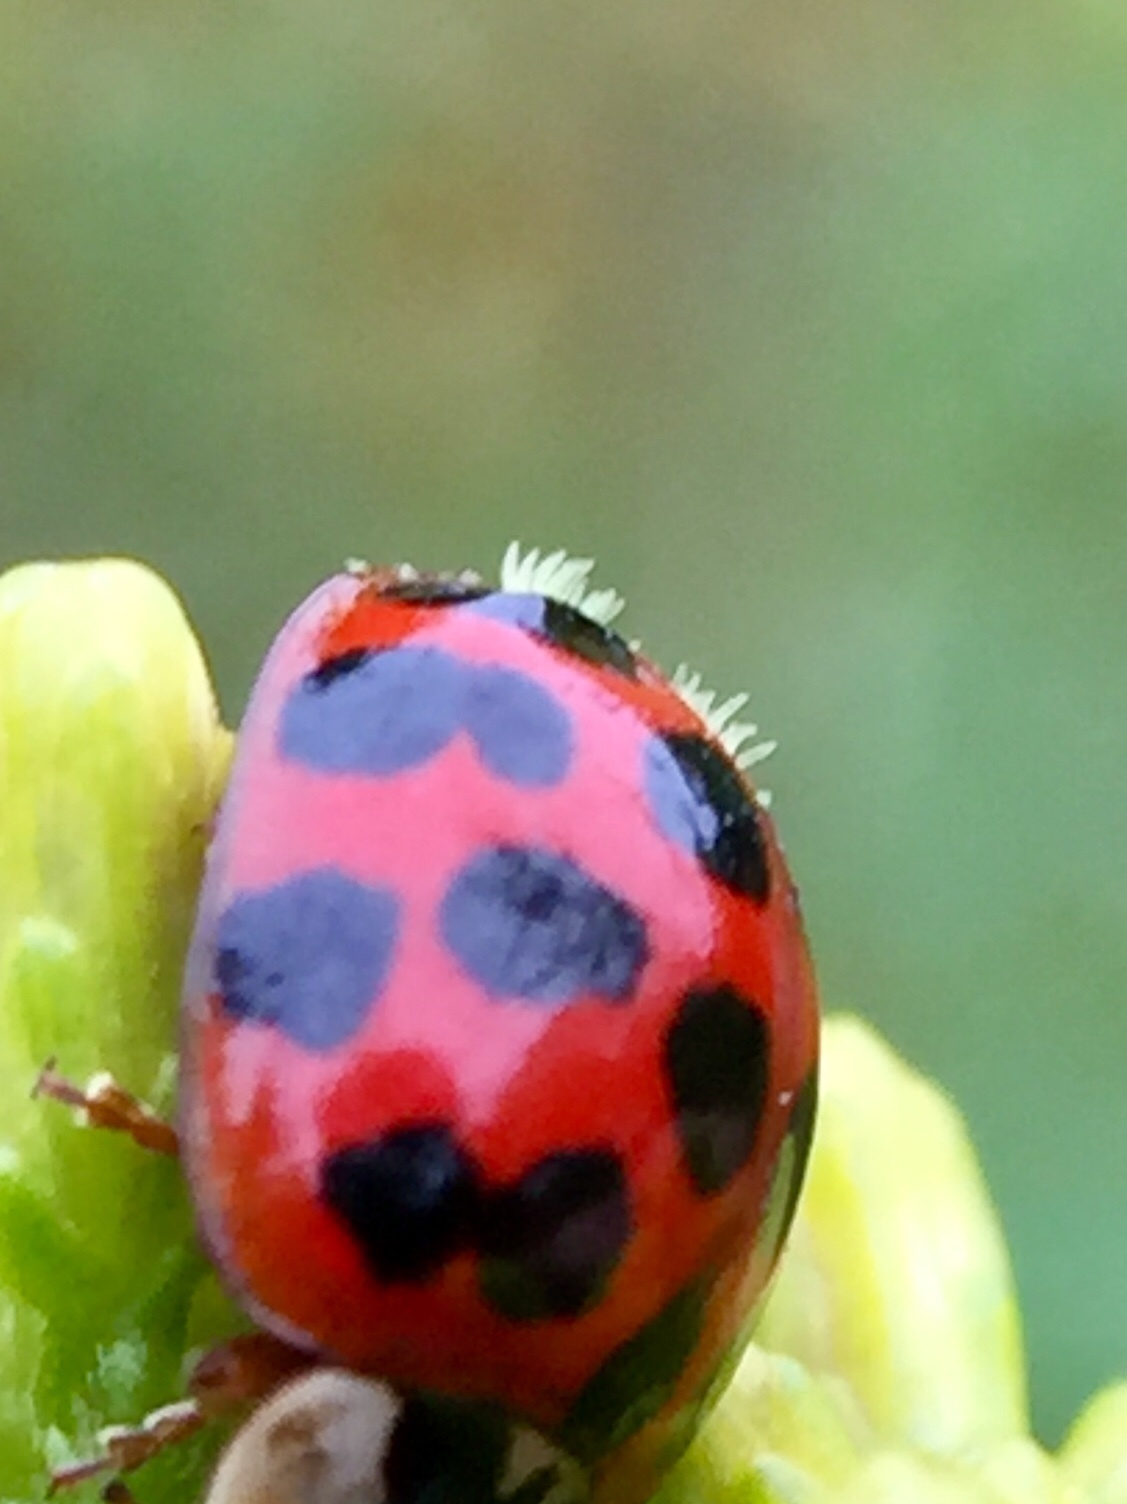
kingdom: Fungi
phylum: Ascomycota
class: Laboulbeniomycetes
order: Laboulbeniales
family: Laboulbeniaceae
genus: Hesperomyces
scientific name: Hesperomyces harmoniae
